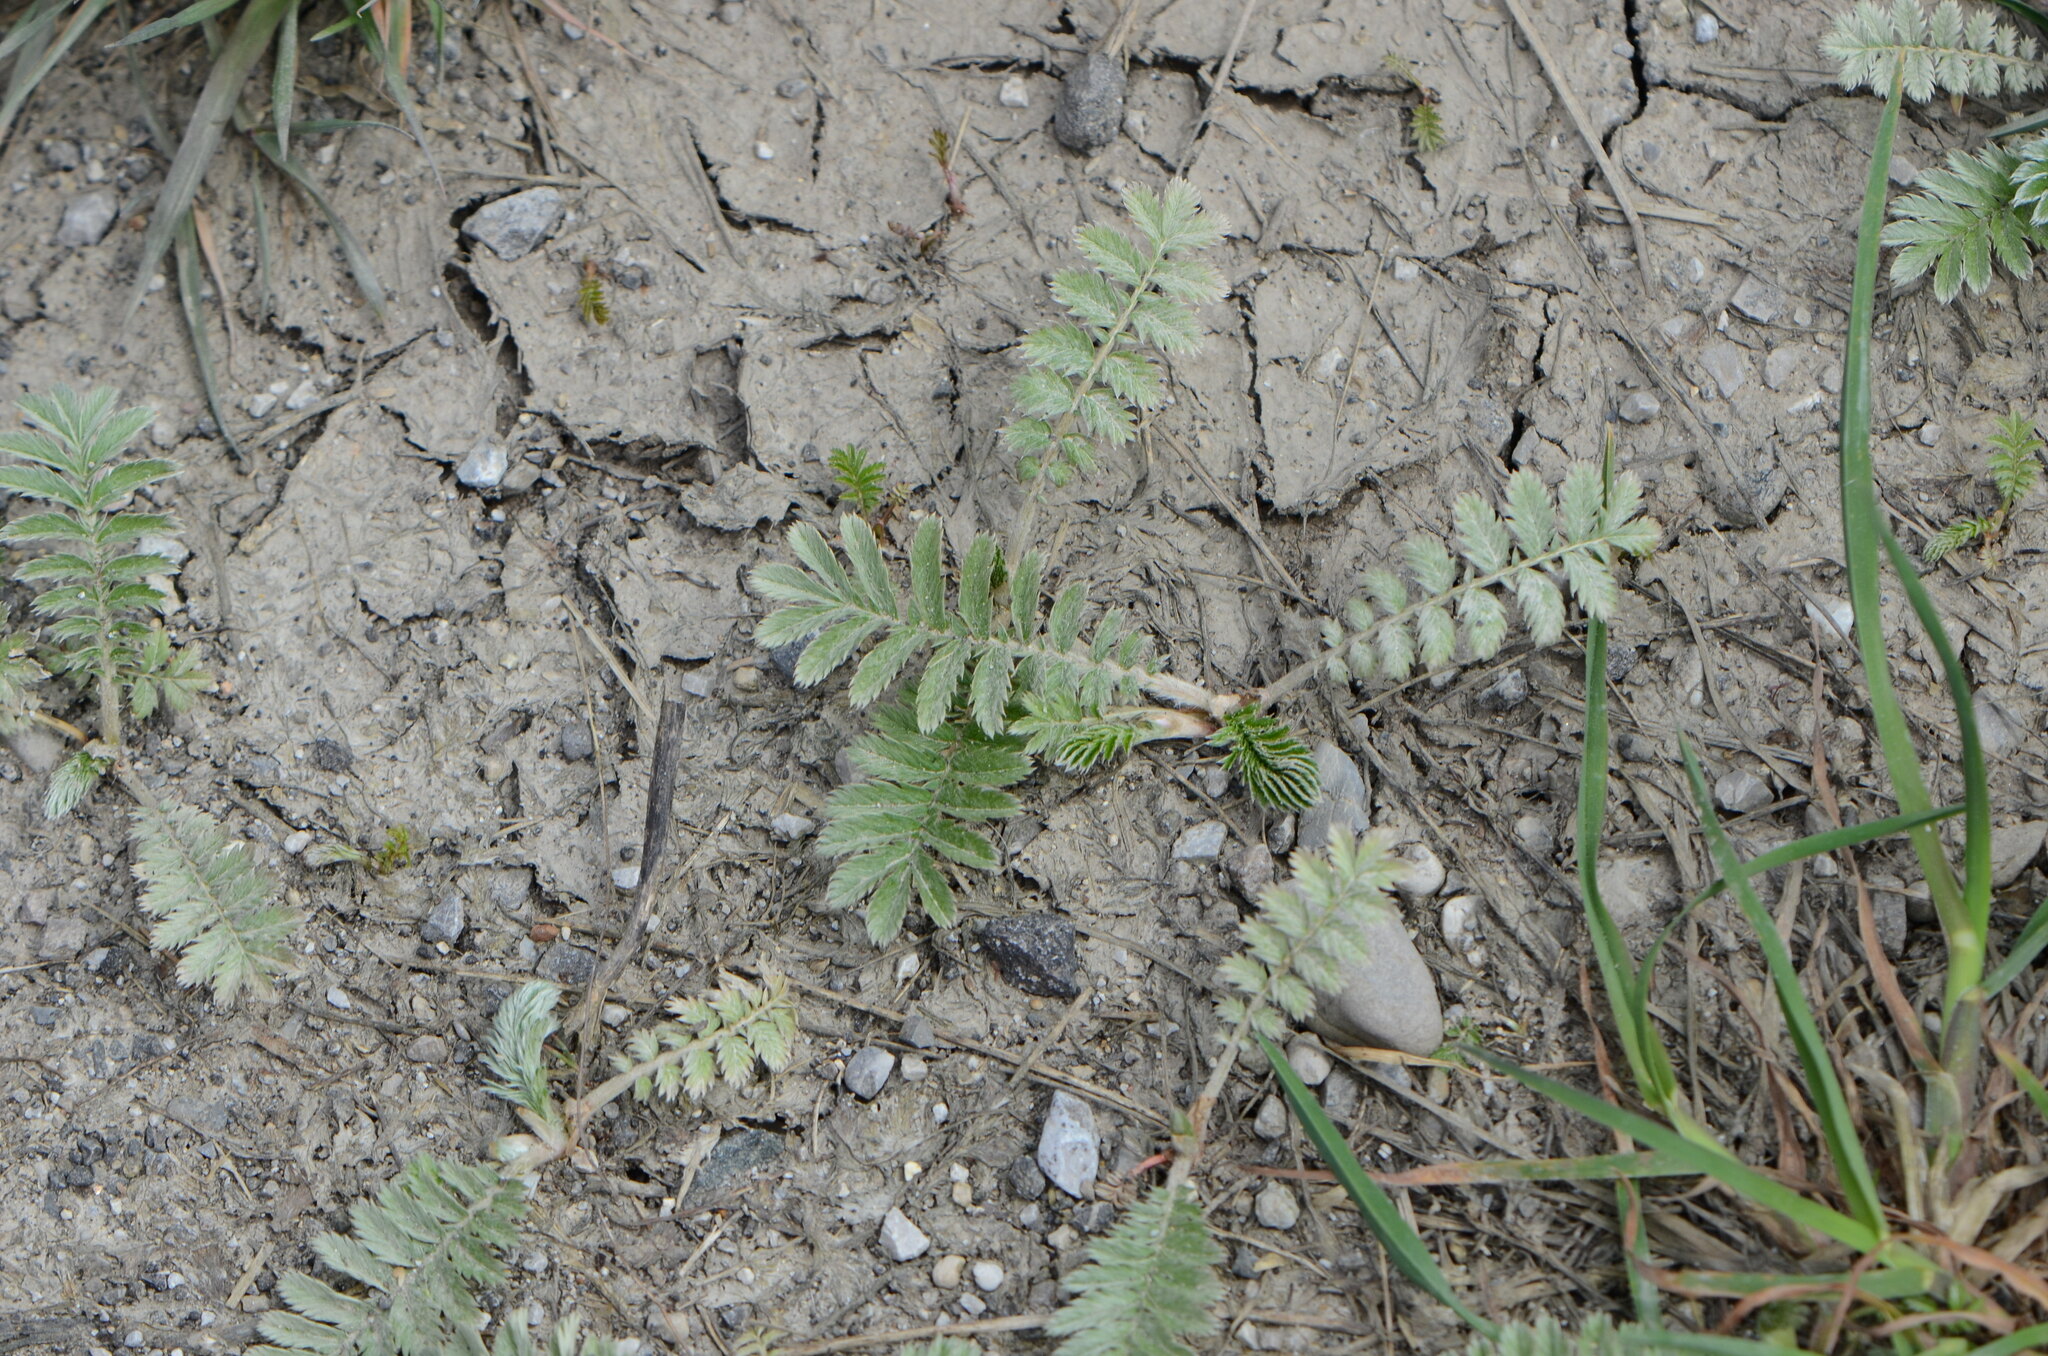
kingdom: Plantae
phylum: Tracheophyta
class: Magnoliopsida
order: Rosales
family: Rosaceae
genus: Argentina
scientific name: Argentina anserina
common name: Common silverweed
